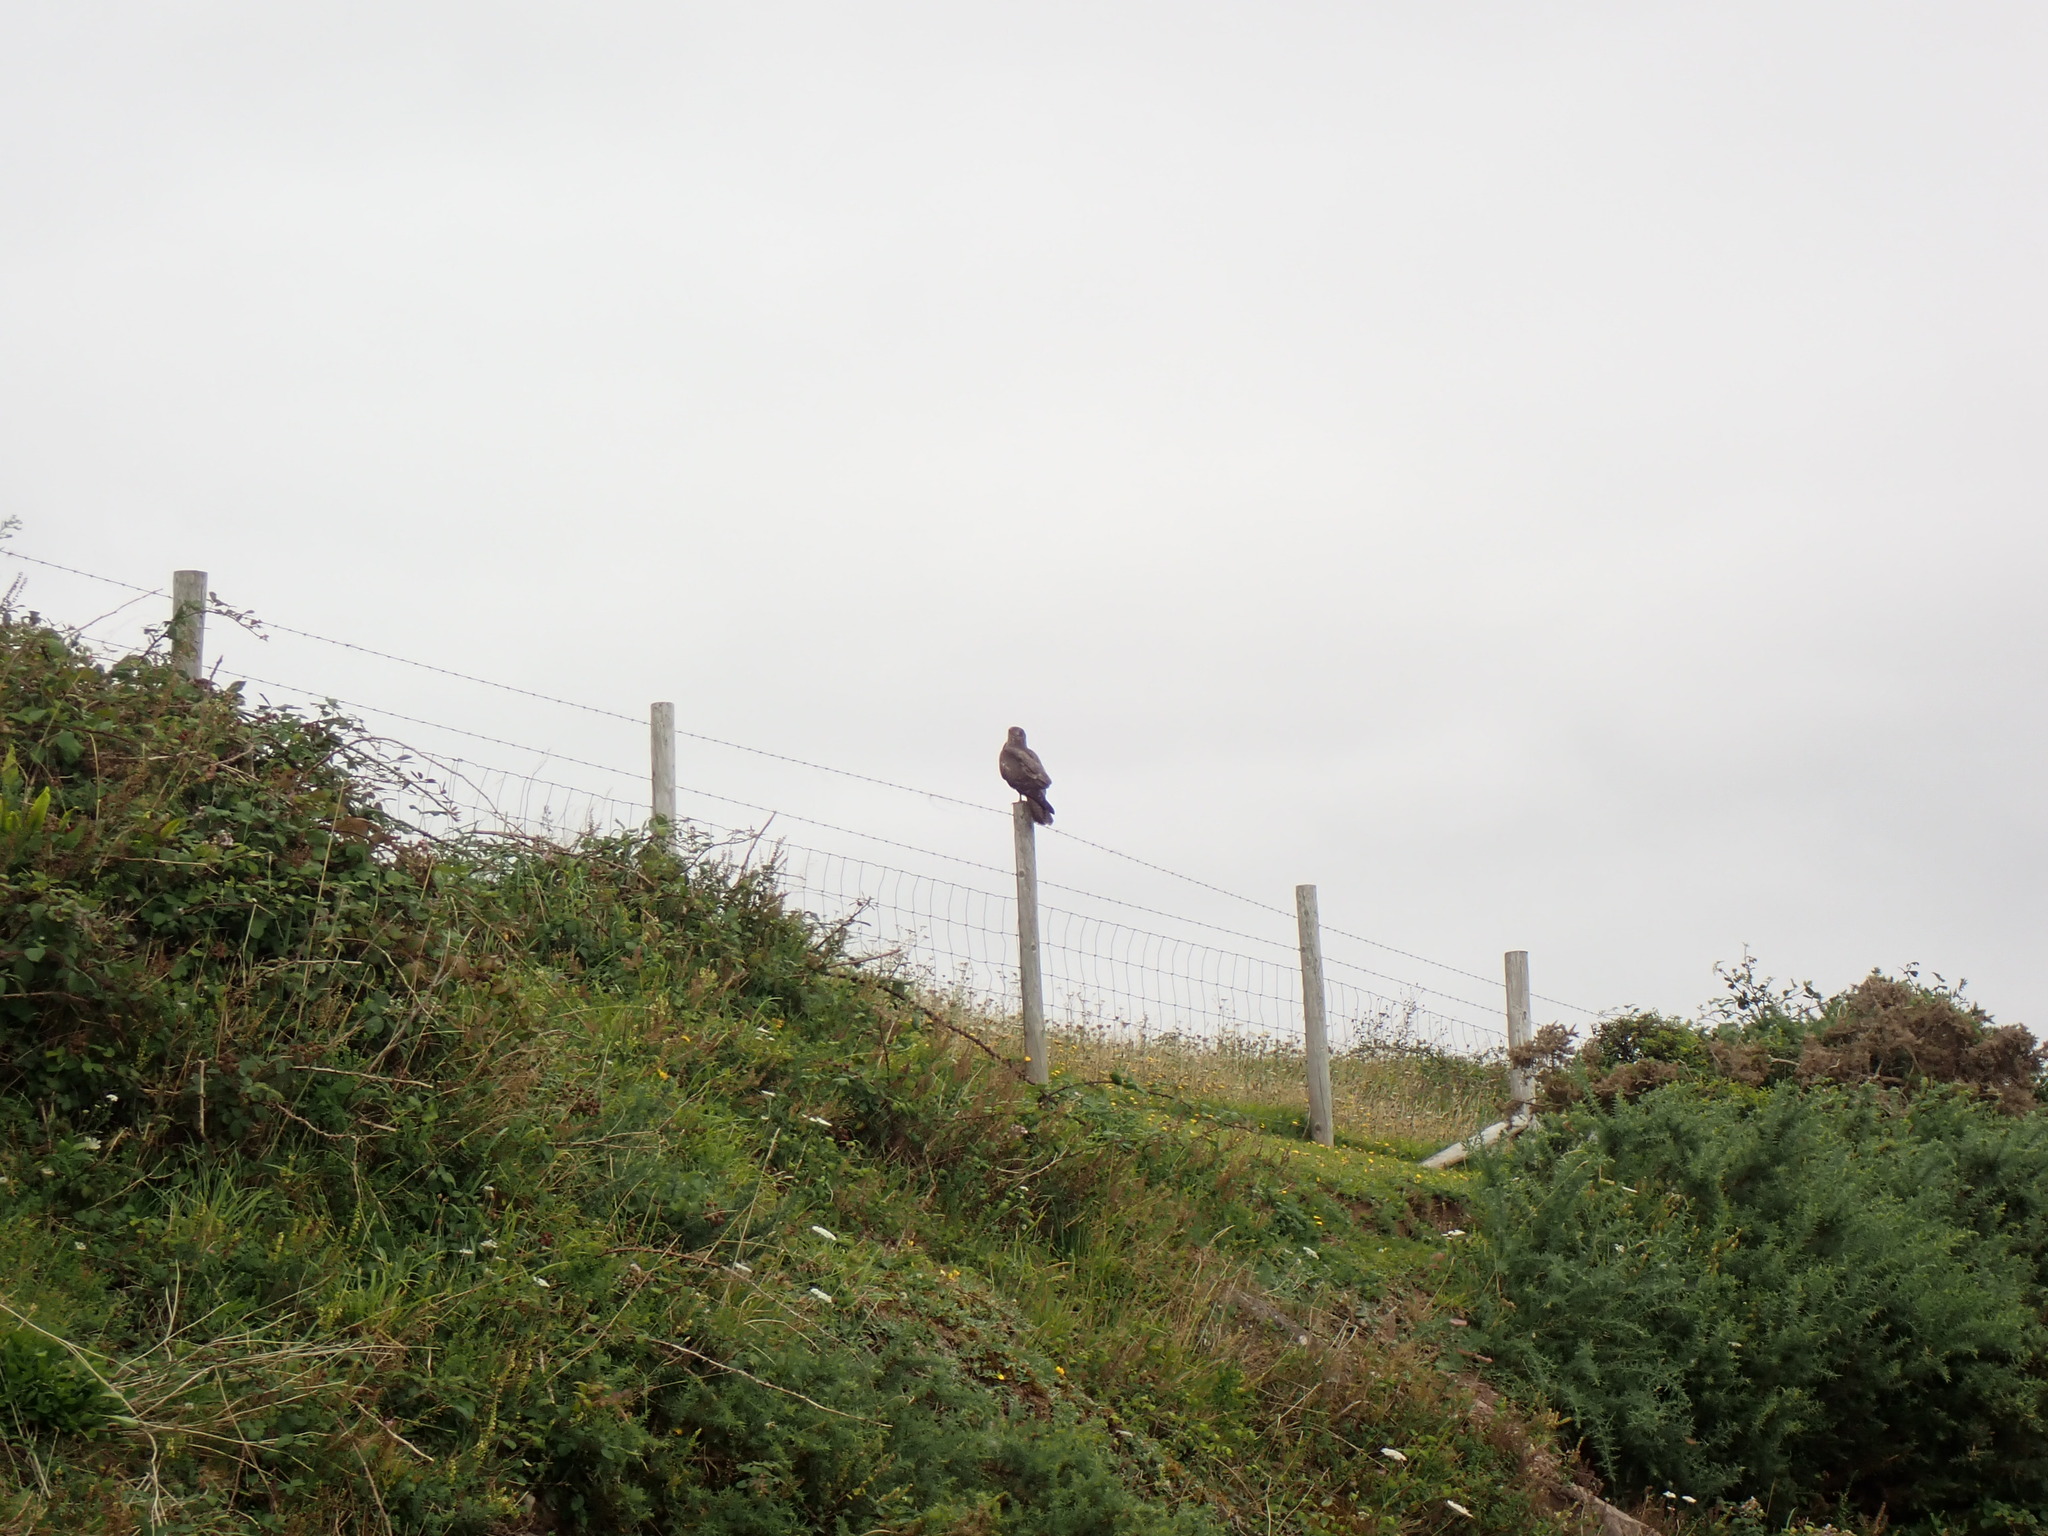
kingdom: Animalia
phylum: Chordata
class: Aves
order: Accipitriformes
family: Accipitridae
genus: Buteo
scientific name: Buteo buteo
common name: Common buzzard
